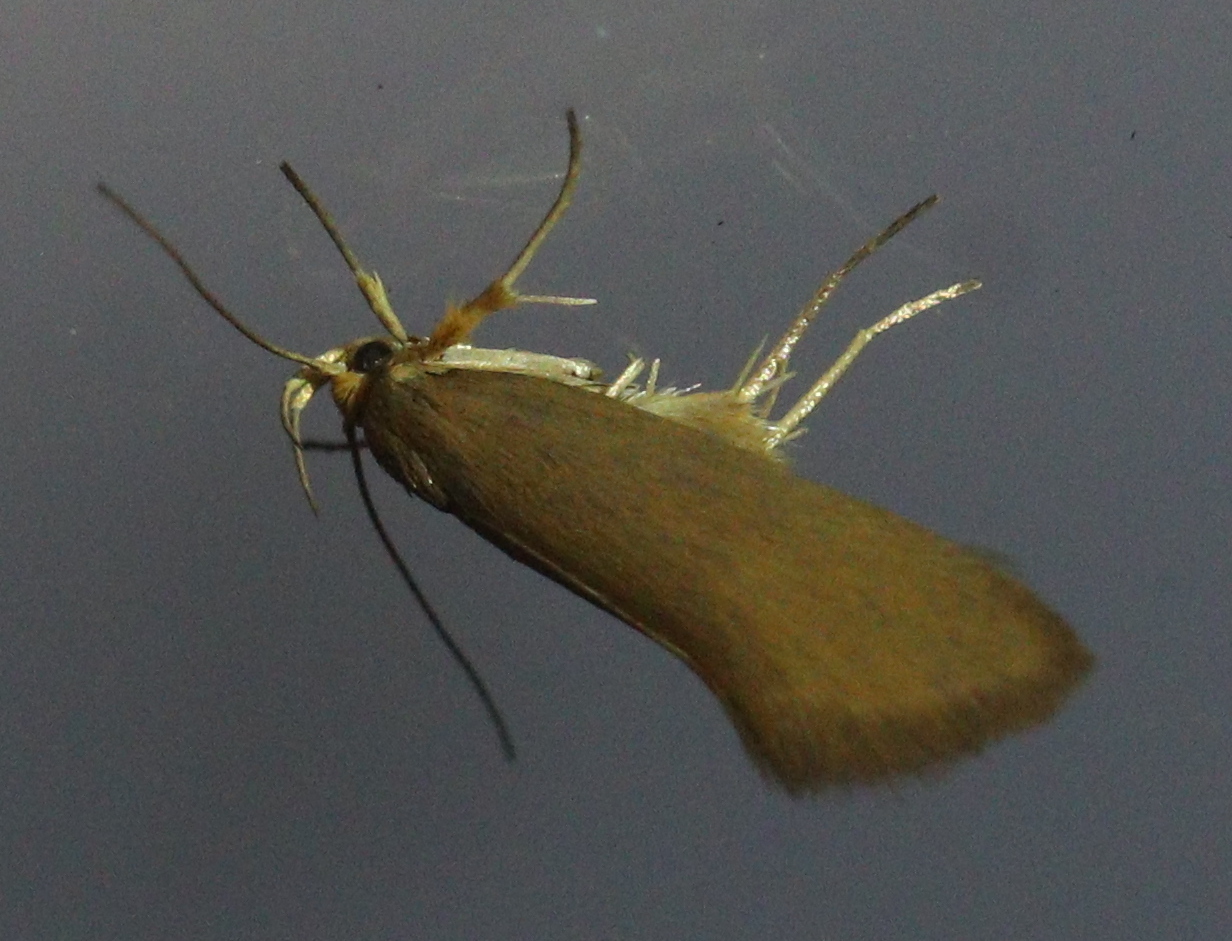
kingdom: Animalia
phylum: Arthropoda
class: Insecta
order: Lepidoptera
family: Oecophoridae
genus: Borkhausenia
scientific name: Borkhausenia Crassa unitella
